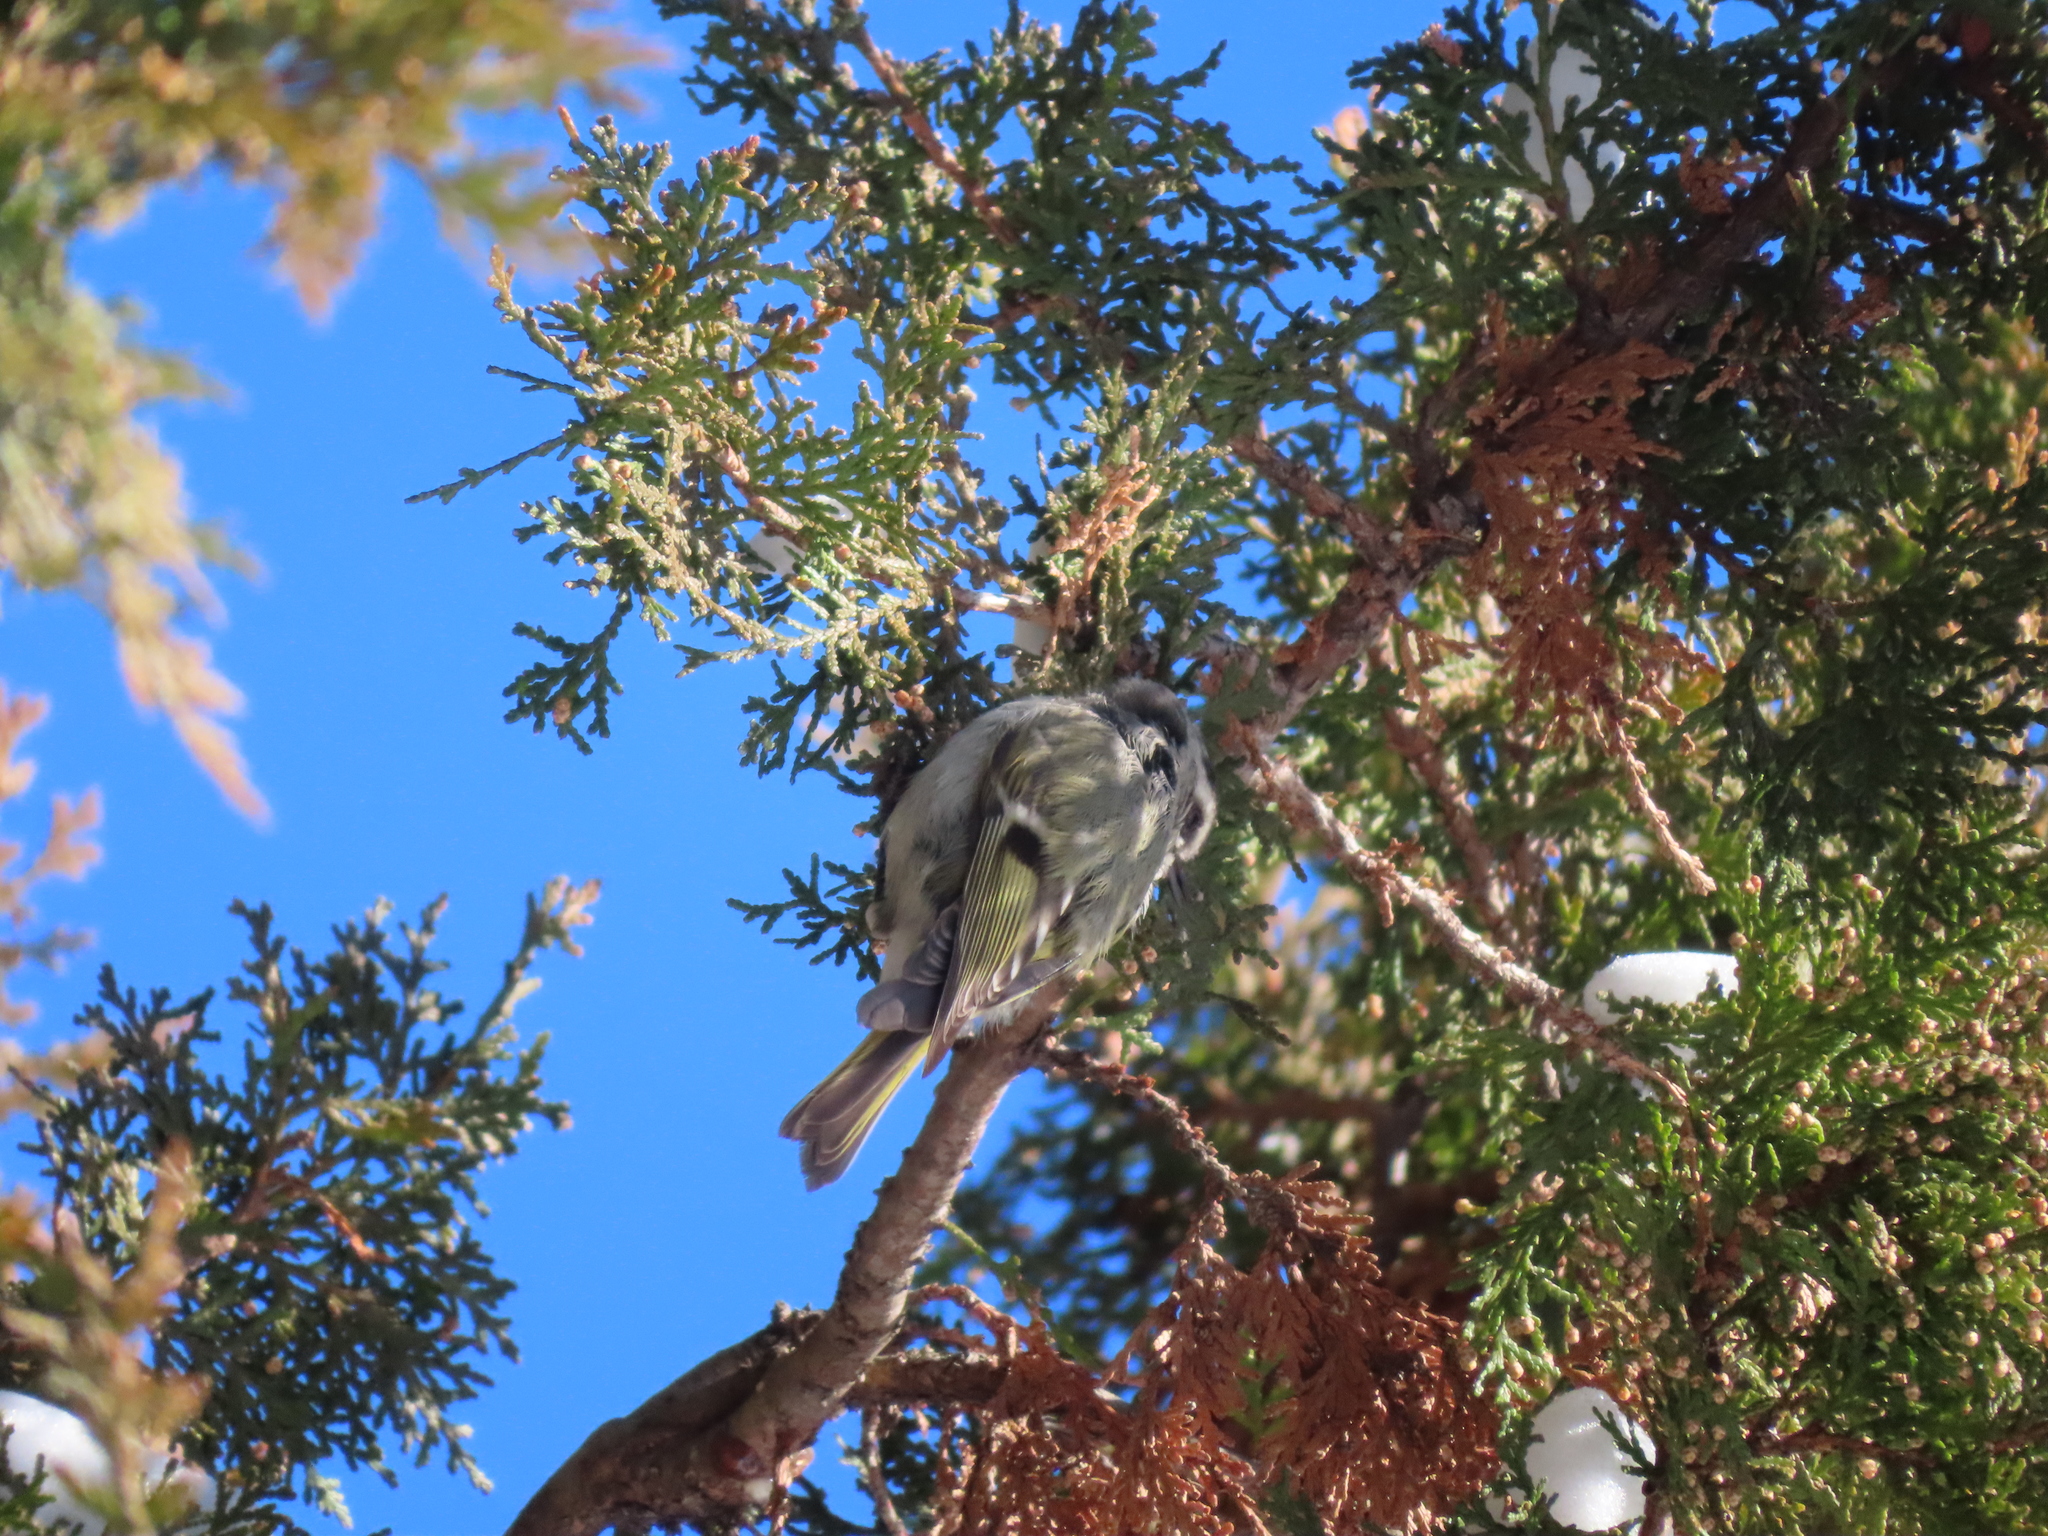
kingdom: Animalia
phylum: Chordata
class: Aves
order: Passeriformes
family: Regulidae
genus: Regulus
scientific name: Regulus satrapa
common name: Golden-crowned kinglet
